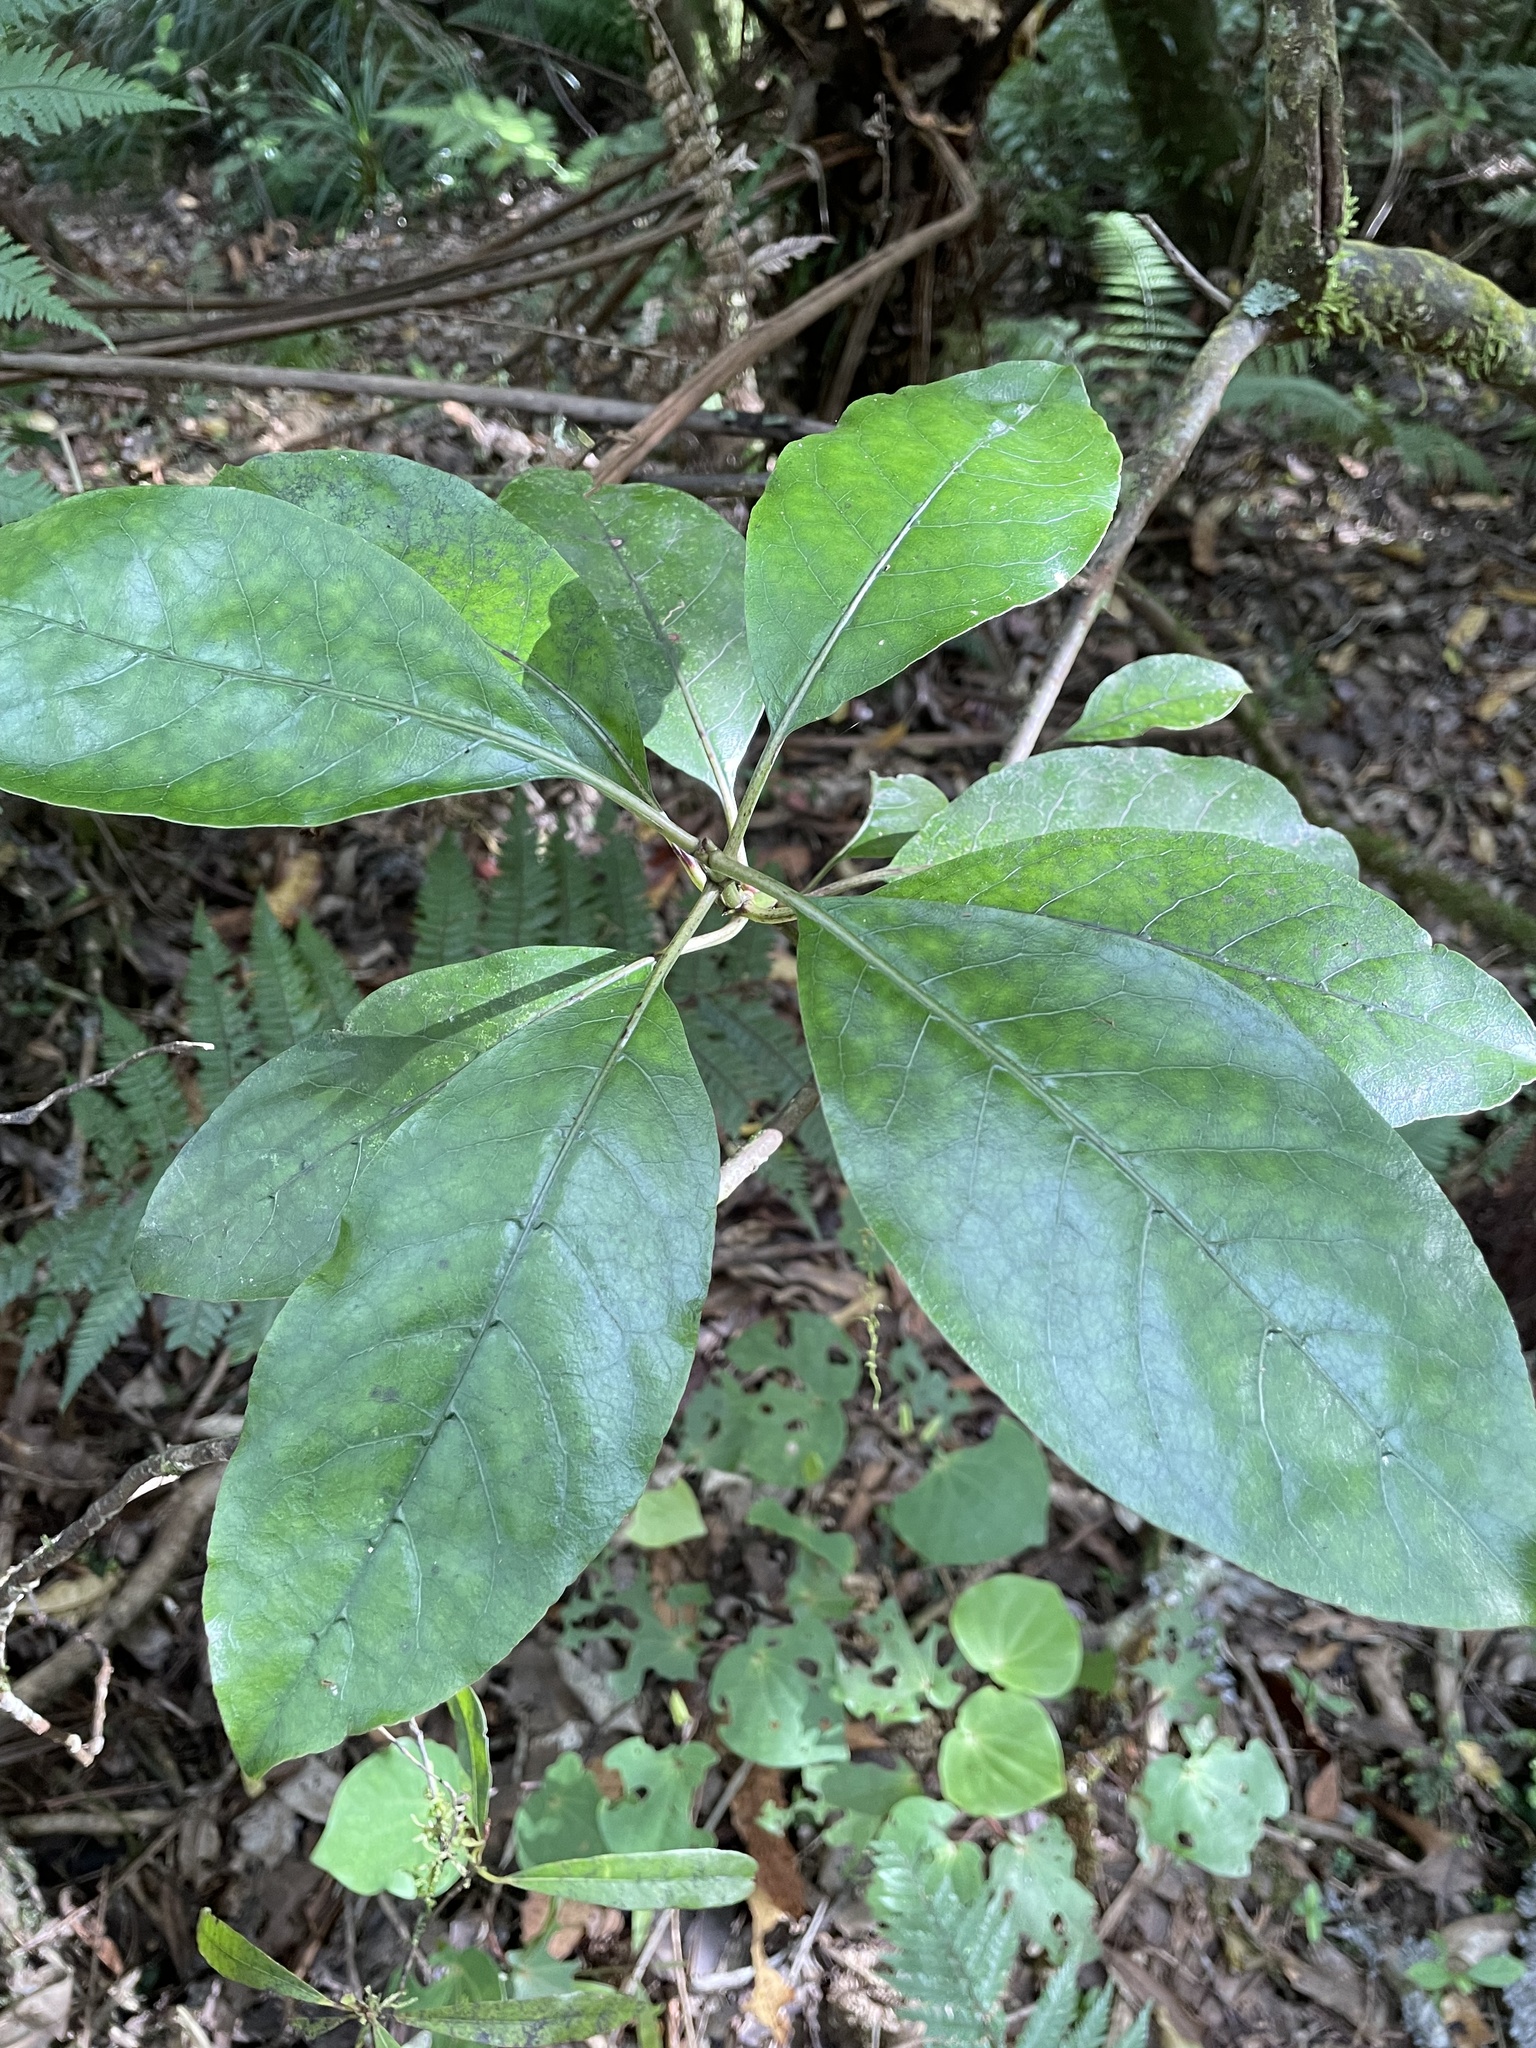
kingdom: Plantae
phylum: Tracheophyta
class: Magnoliopsida
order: Gentianales
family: Rubiaceae
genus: Coprosma
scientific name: Coprosma autumnalis
